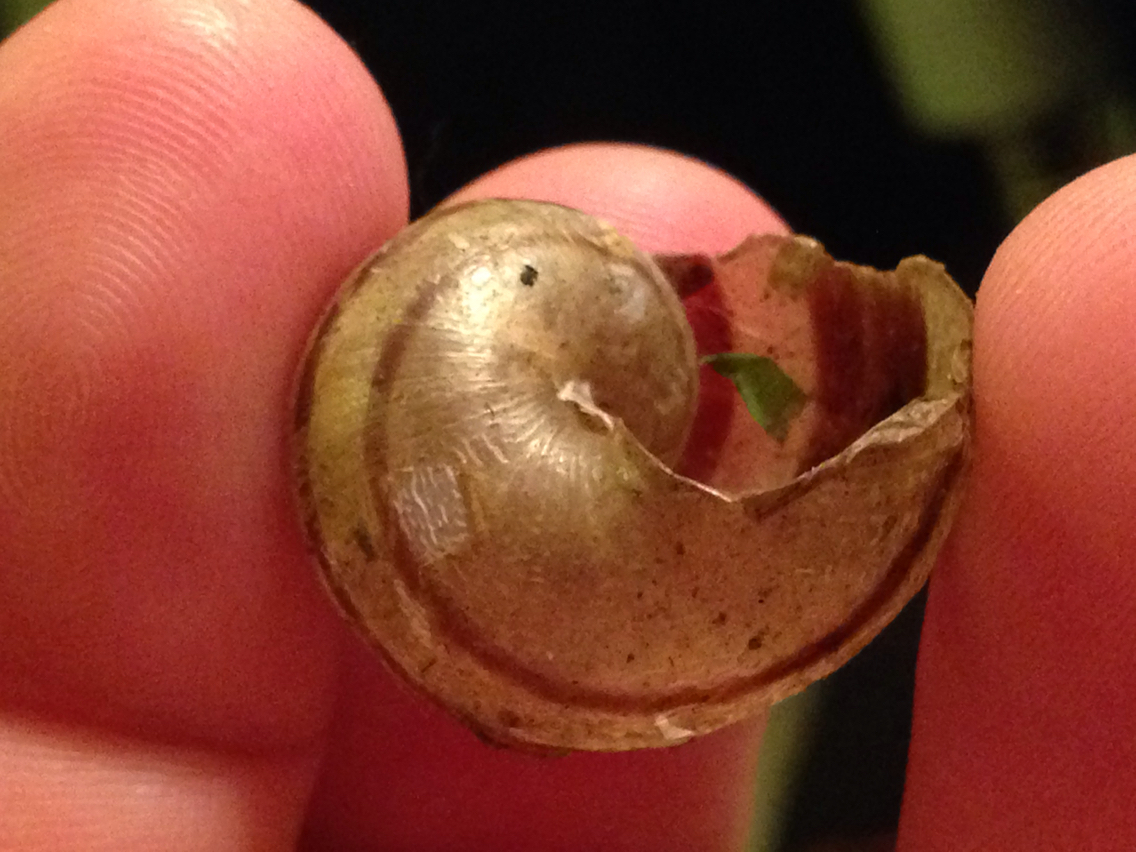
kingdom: Animalia
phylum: Mollusca
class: Gastropoda
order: Stylommatophora
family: Helicidae
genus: Cornu
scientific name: Cornu aspersum
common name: Brown garden snail
